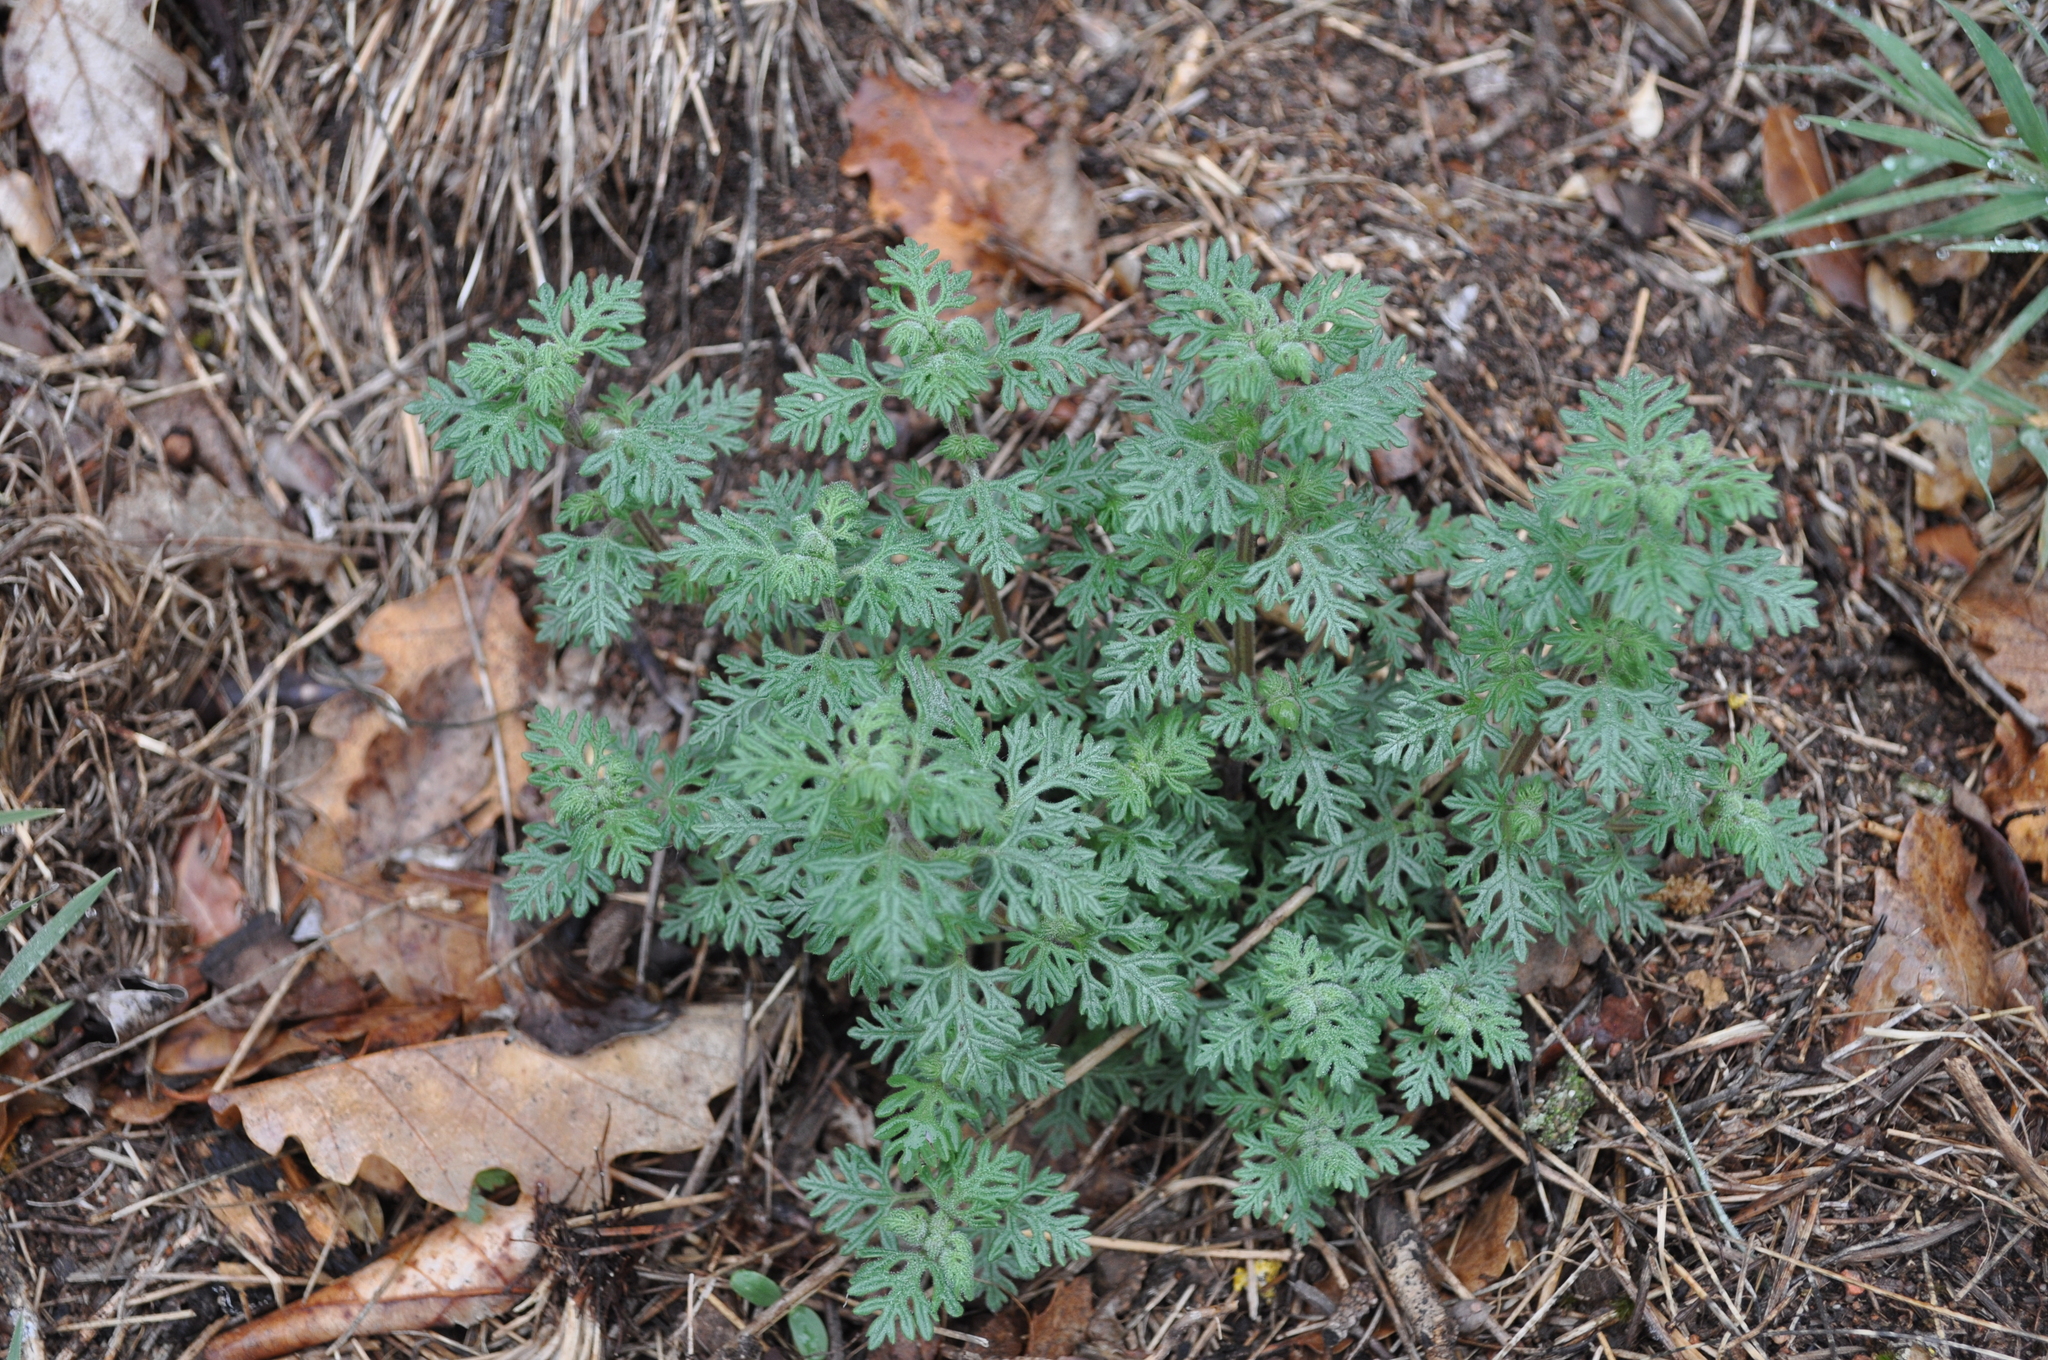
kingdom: Plantae
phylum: Tracheophyta
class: Magnoliopsida
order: Lamiales
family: Lamiaceae
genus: Teucrium
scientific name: Teucrium botrys
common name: Cut-leaved germander
